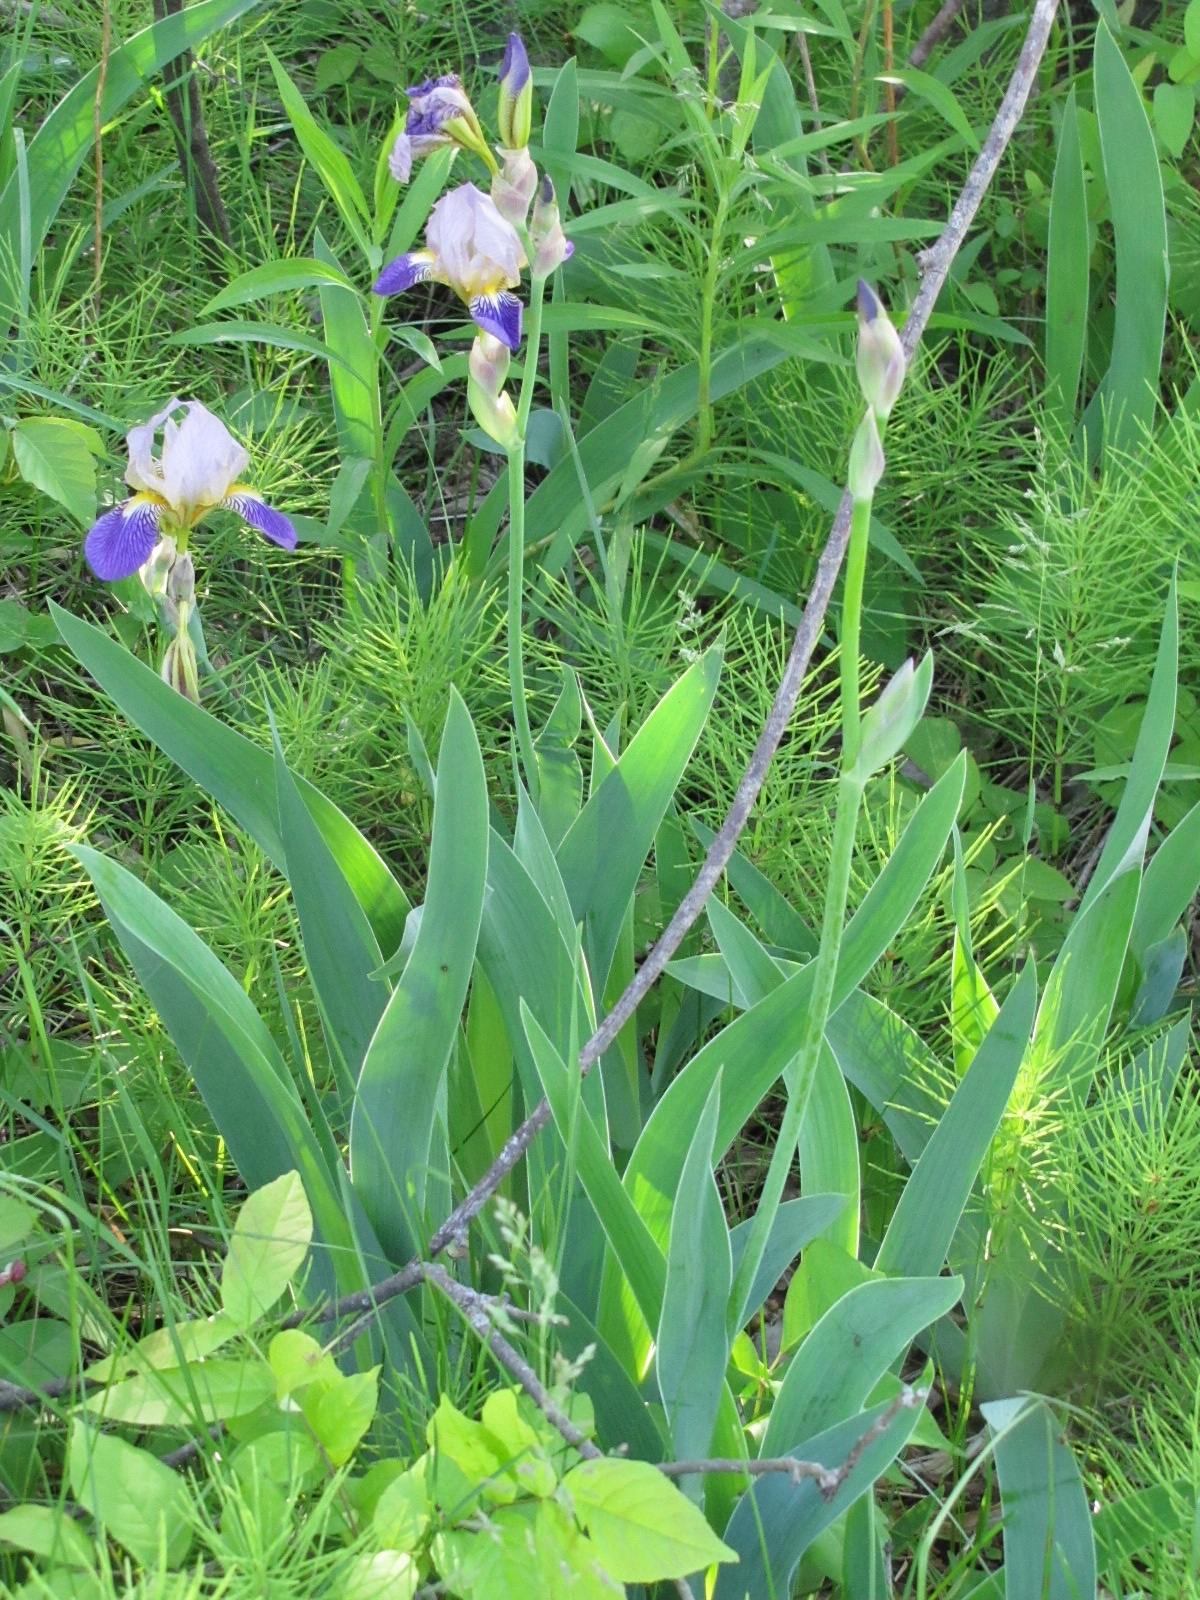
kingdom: Plantae
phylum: Tracheophyta
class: Liliopsida
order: Asparagales
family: Iridaceae
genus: Iris
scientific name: Iris hybrida
